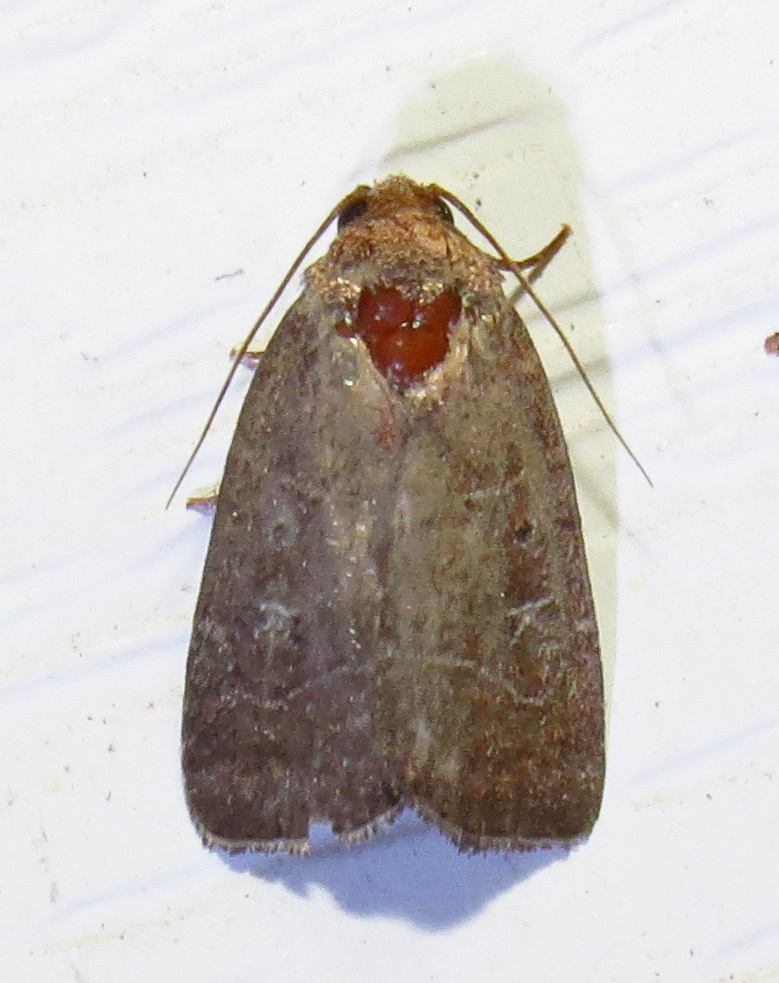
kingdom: Animalia
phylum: Arthropoda
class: Insecta
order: Lepidoptera
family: Noctuidae
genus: Elaphria
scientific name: Elaphria grata
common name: Grateful midget moth
